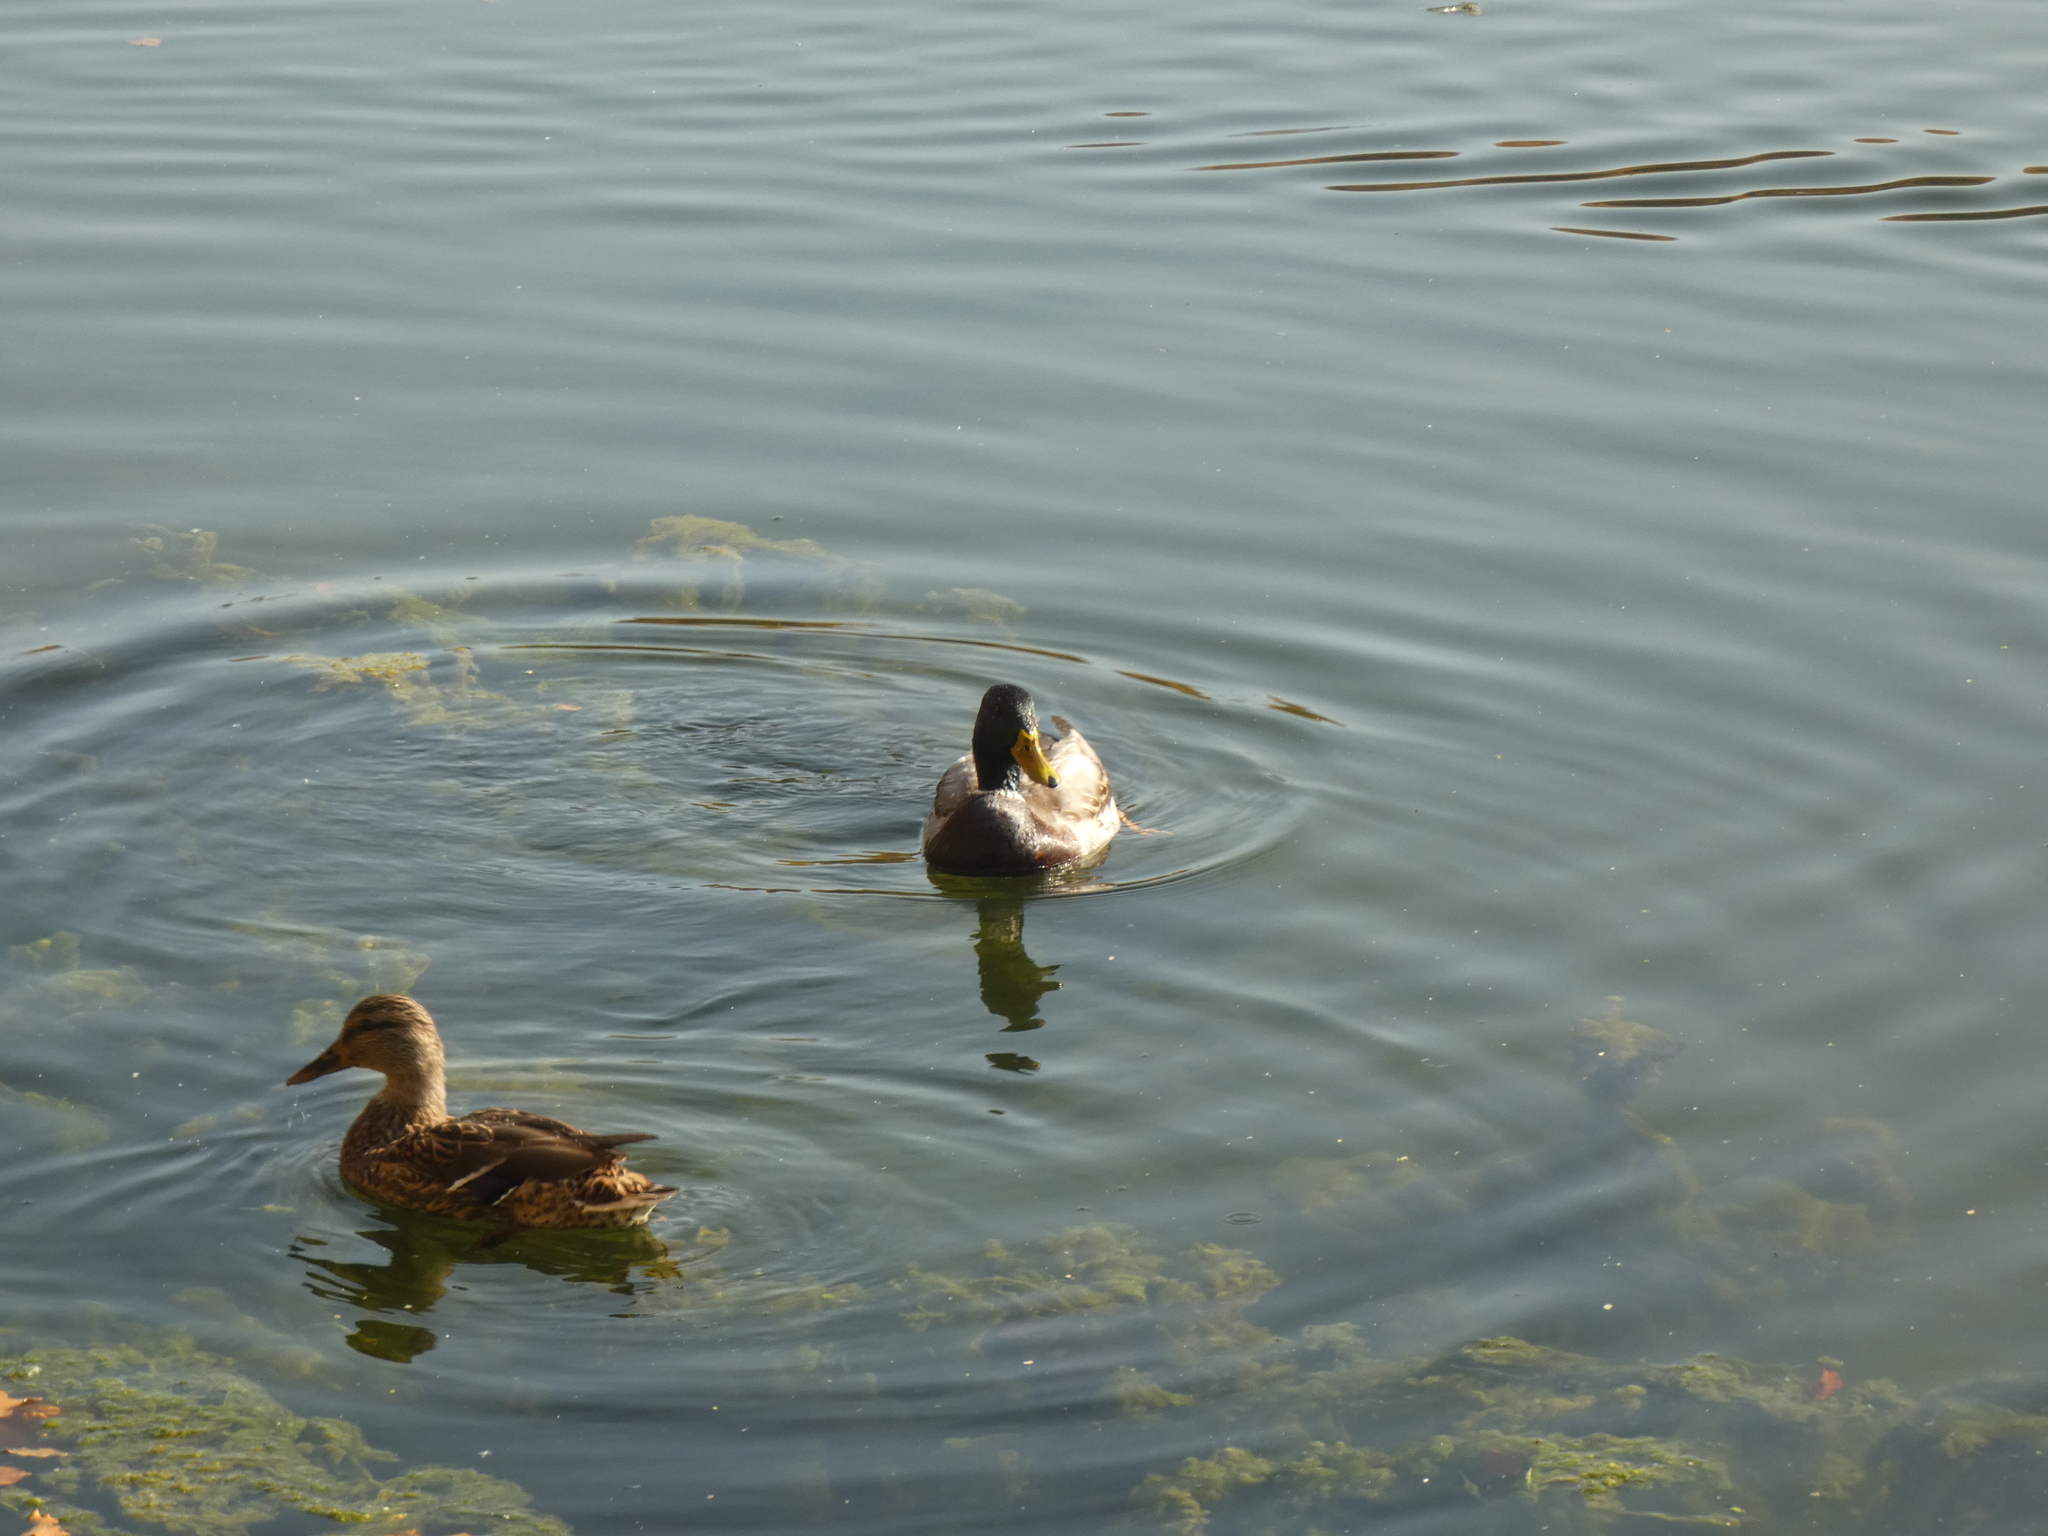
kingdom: Animalia
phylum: Chordata
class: Aves
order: Anseriformes
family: Anatidae
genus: Anas
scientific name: Anas platyrhynchos
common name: Mallard
